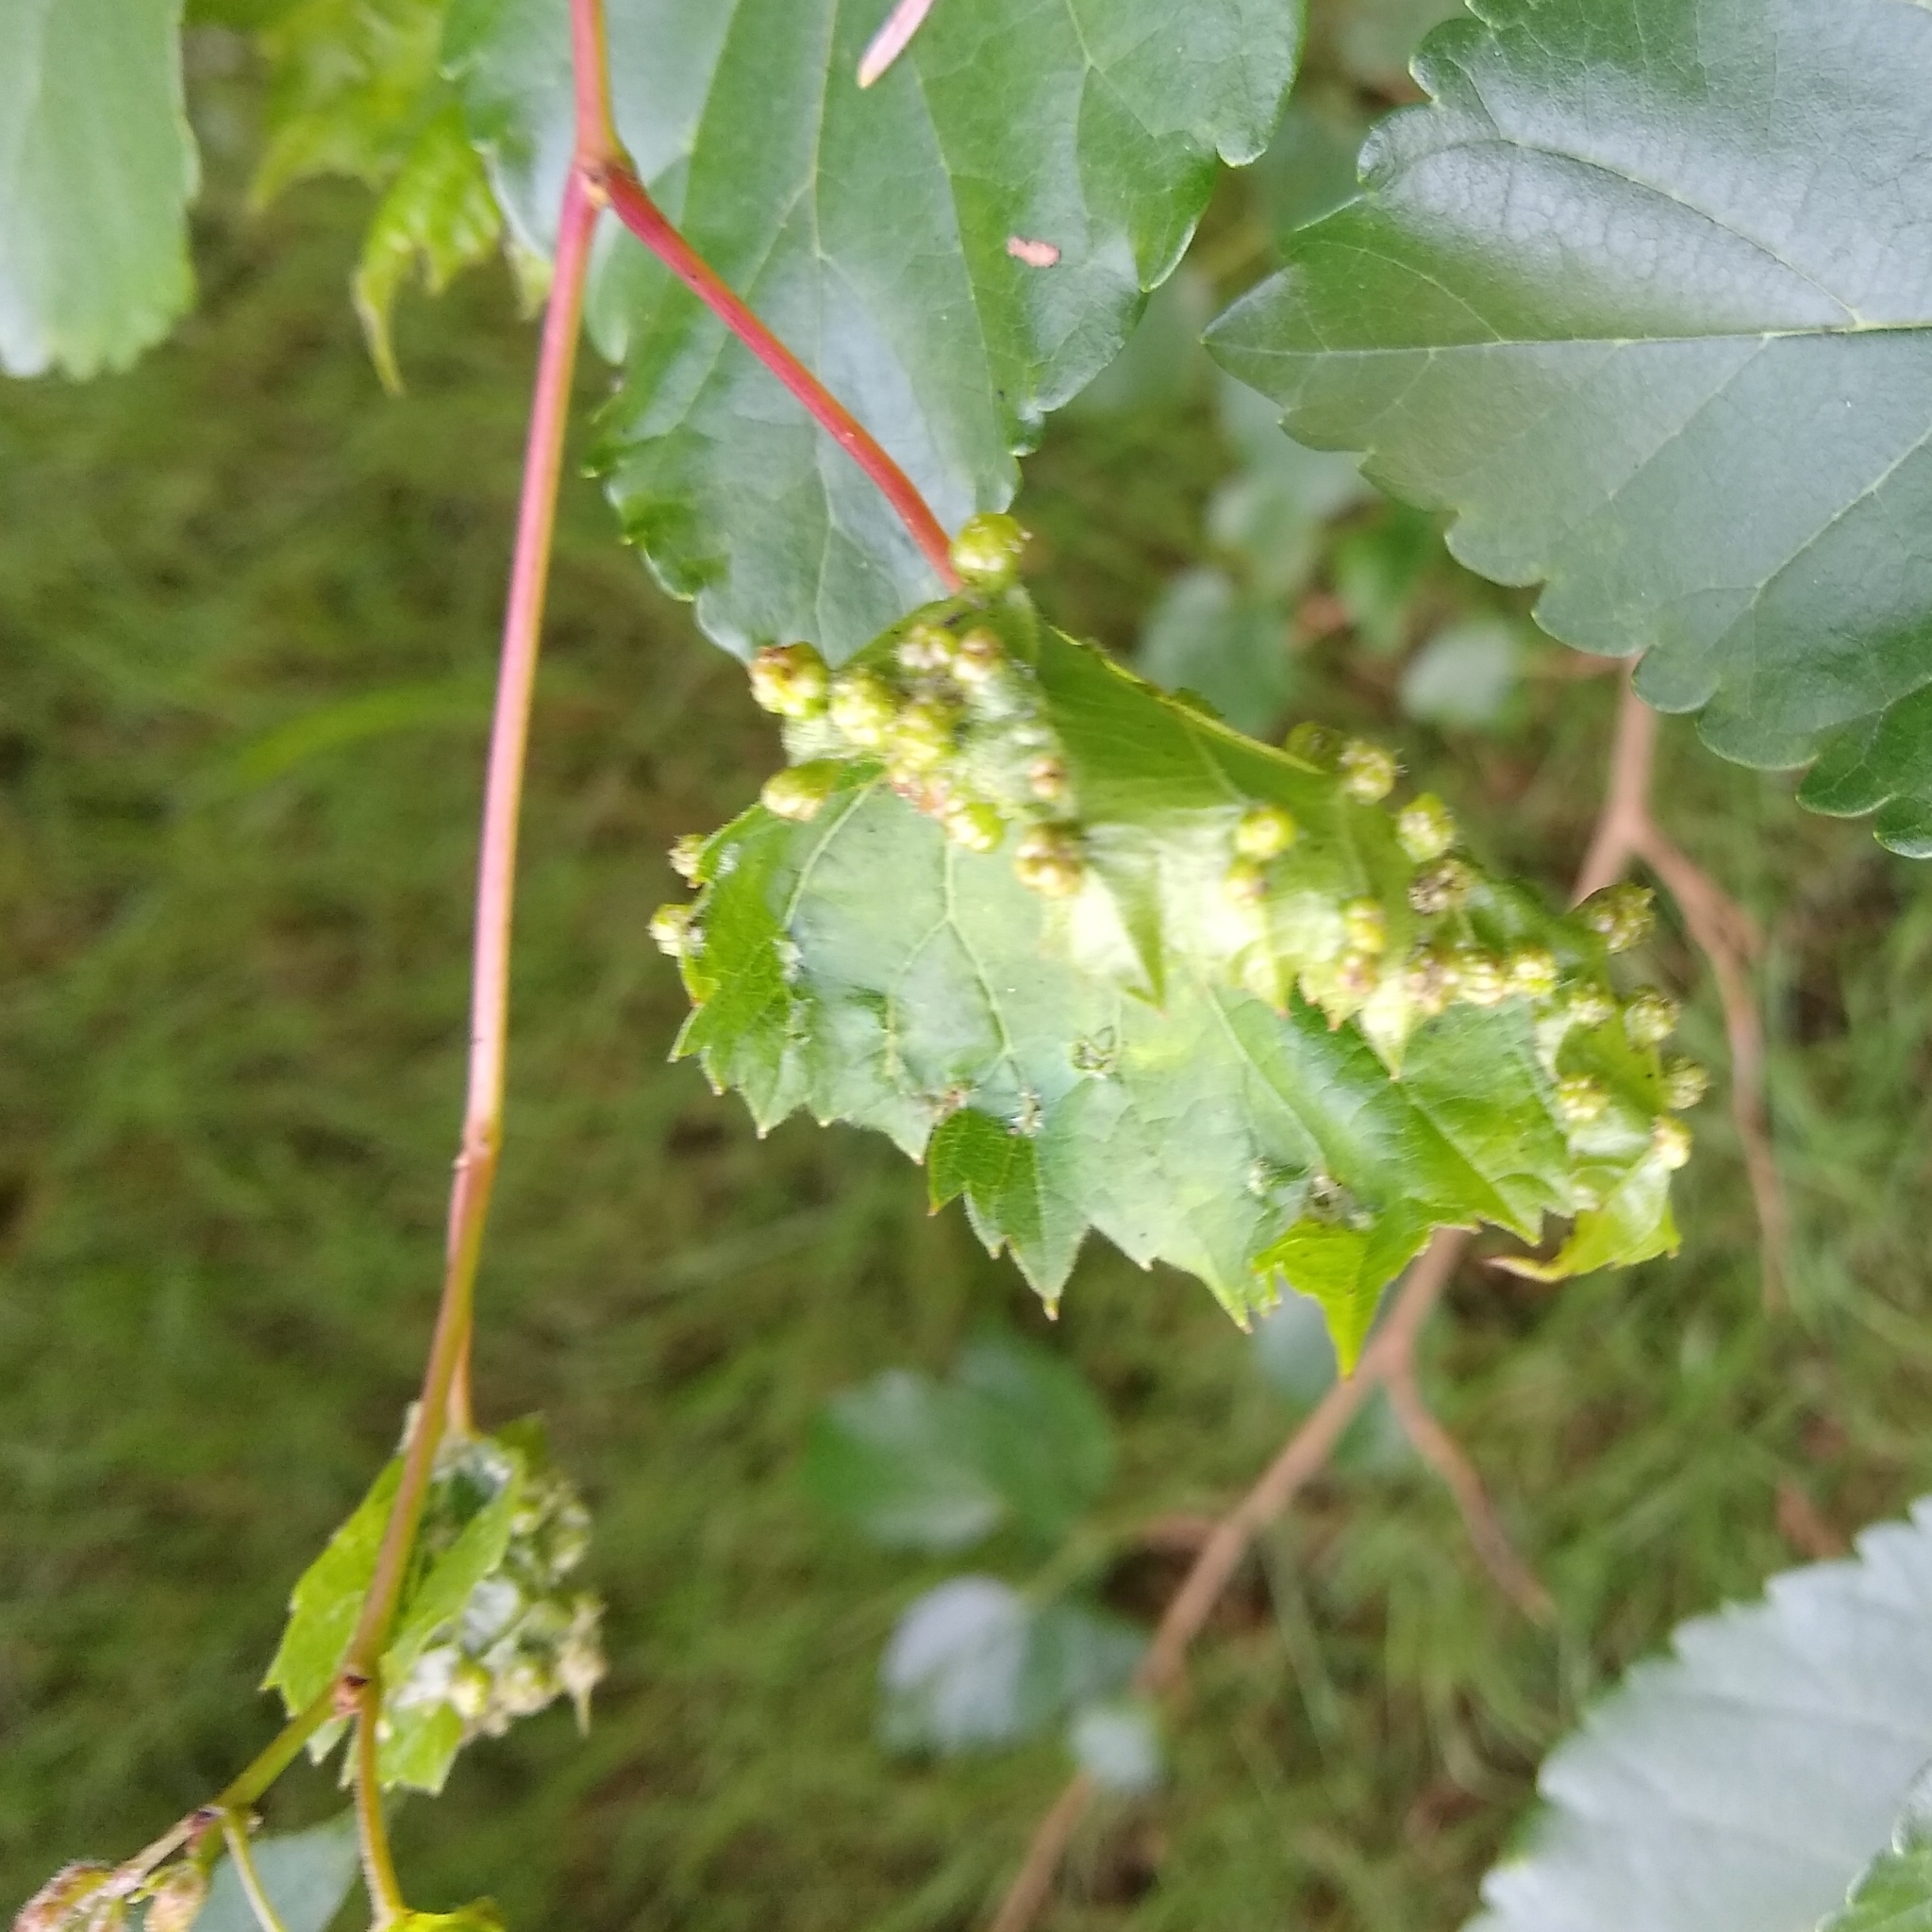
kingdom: Animalia
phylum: Arthropoda
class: Insecta
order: Hemiptera
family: Phylloxeridae
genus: Daktulosphaira
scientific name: Daktulosphaira vitifoliae
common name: Grape phylloxera
